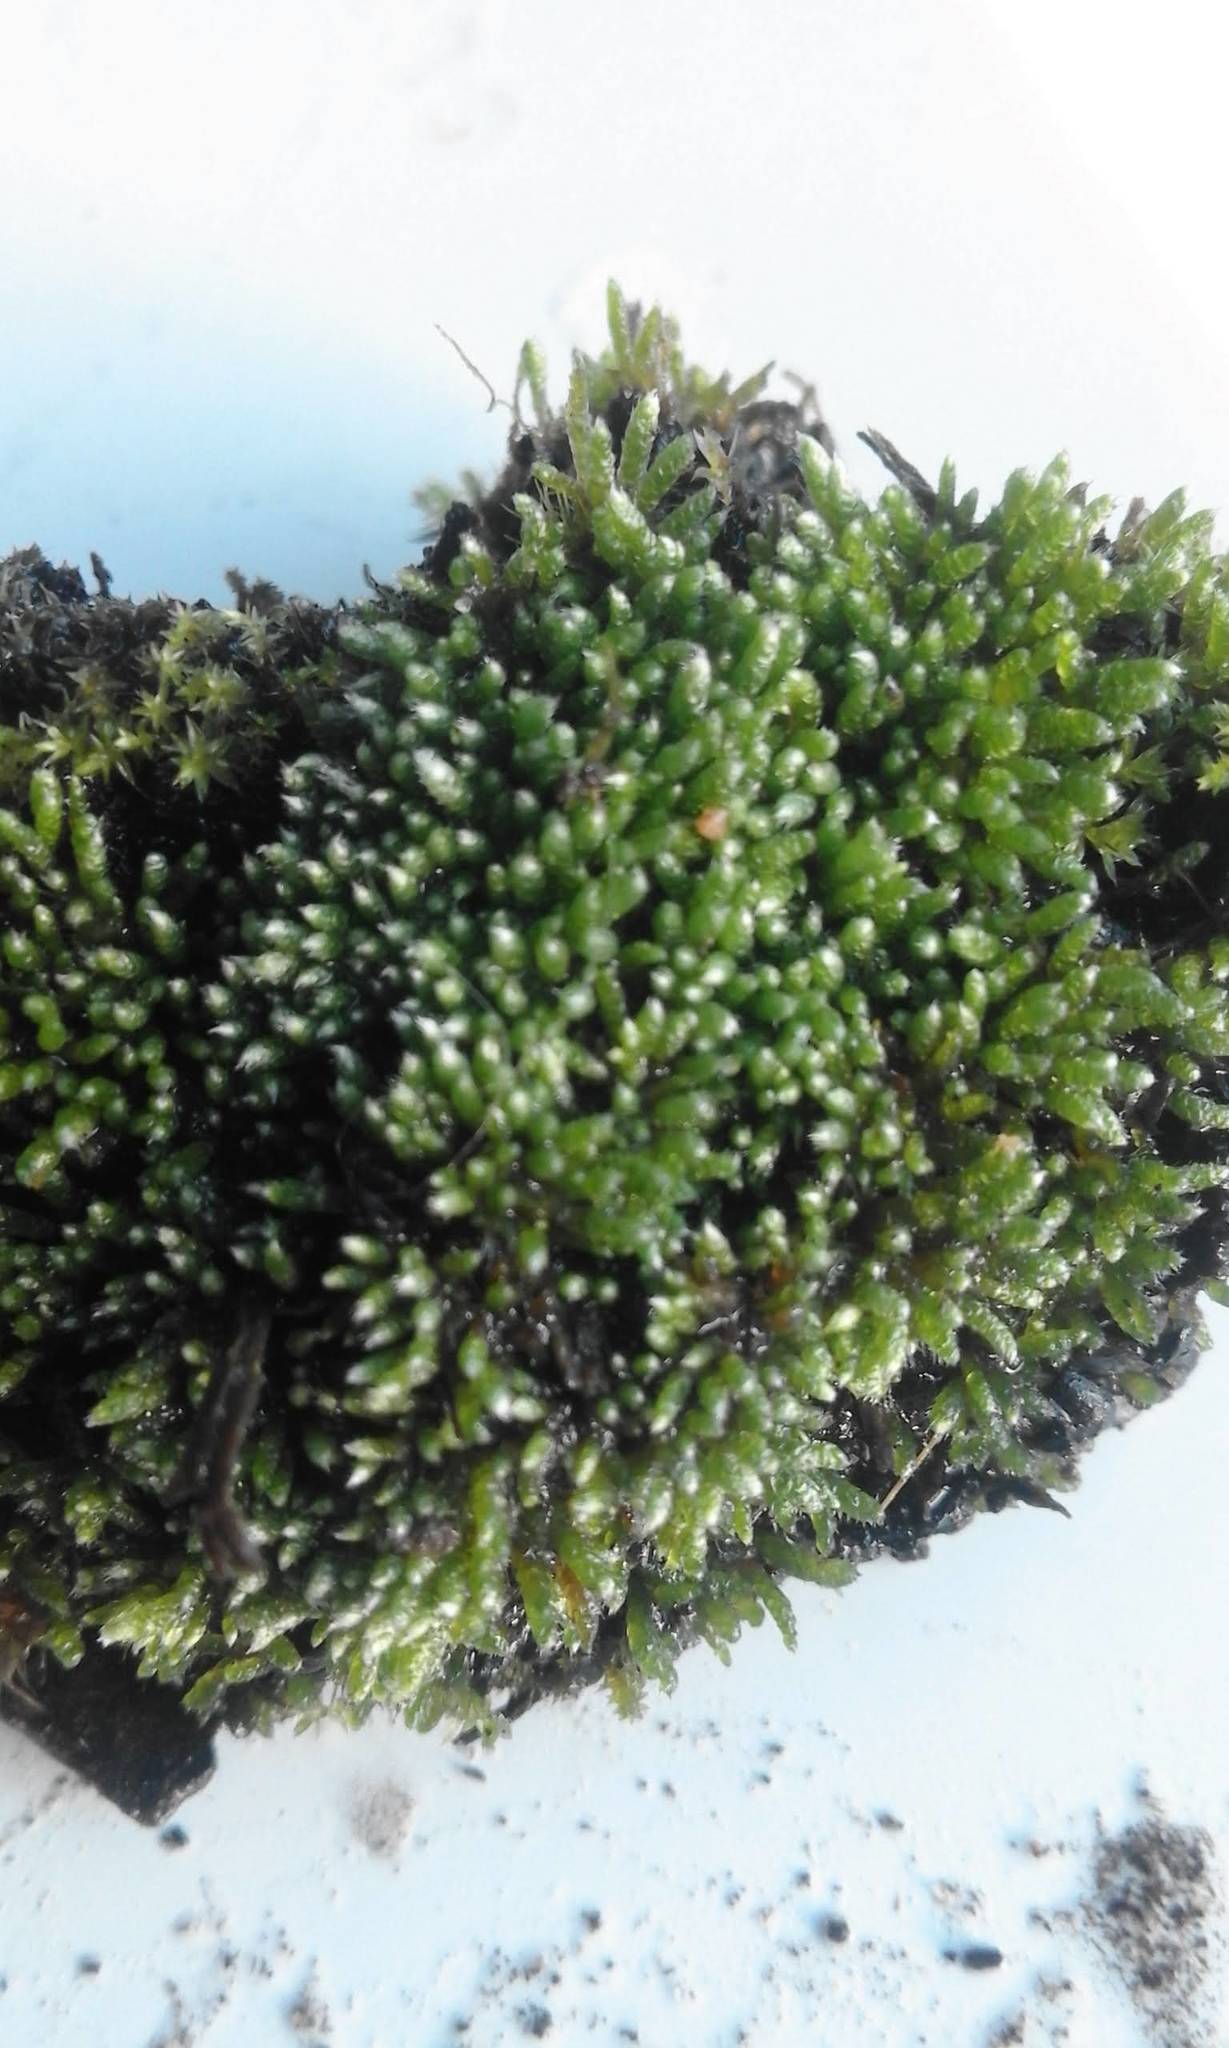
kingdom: Plantae
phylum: Bryophyta
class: Bryopsida
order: Bryales
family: Bryaceae
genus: Bryum
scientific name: Bryum argenteum
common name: Silver-moss
